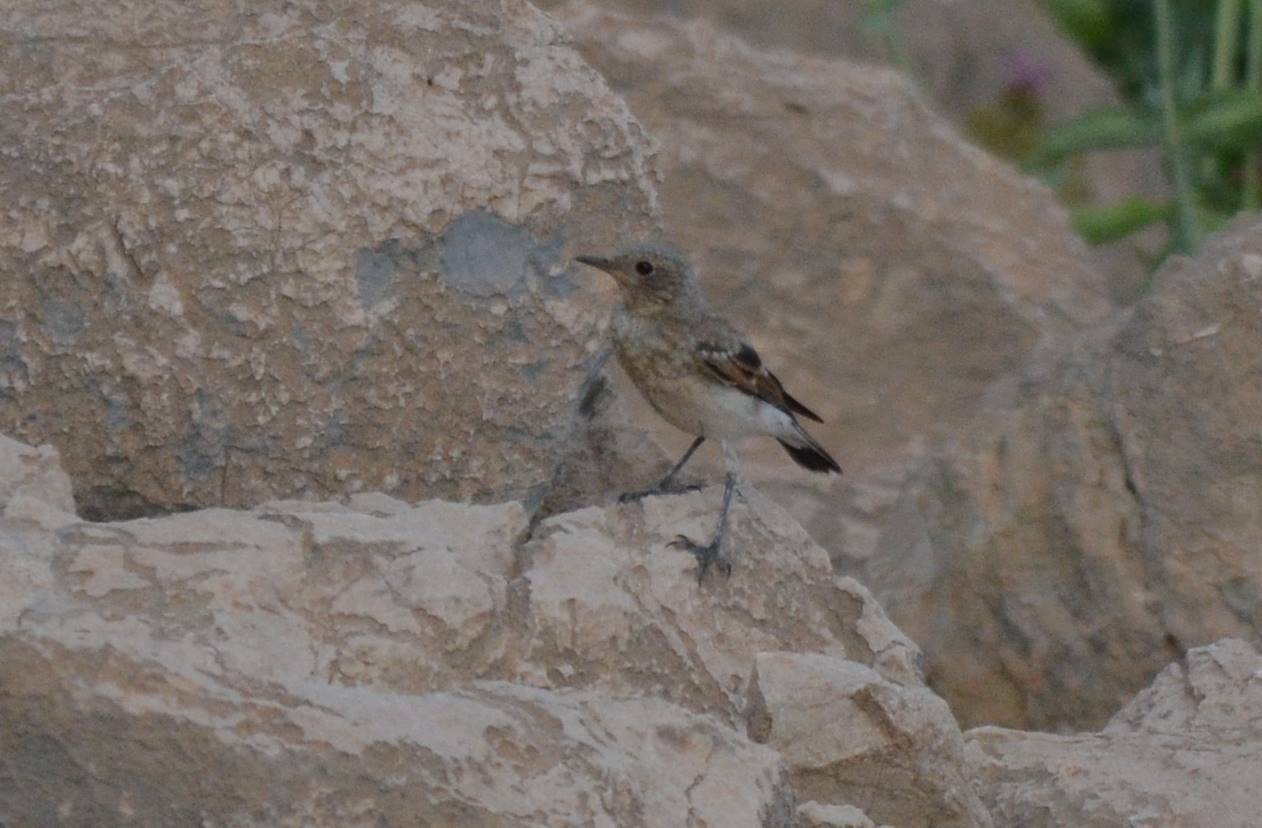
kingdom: Animalia
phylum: Chordata
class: Aves
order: Passeriformes
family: Muscicapidae
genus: Oenanthe
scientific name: Oenanthe hispanica
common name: Black-eared wheatear
